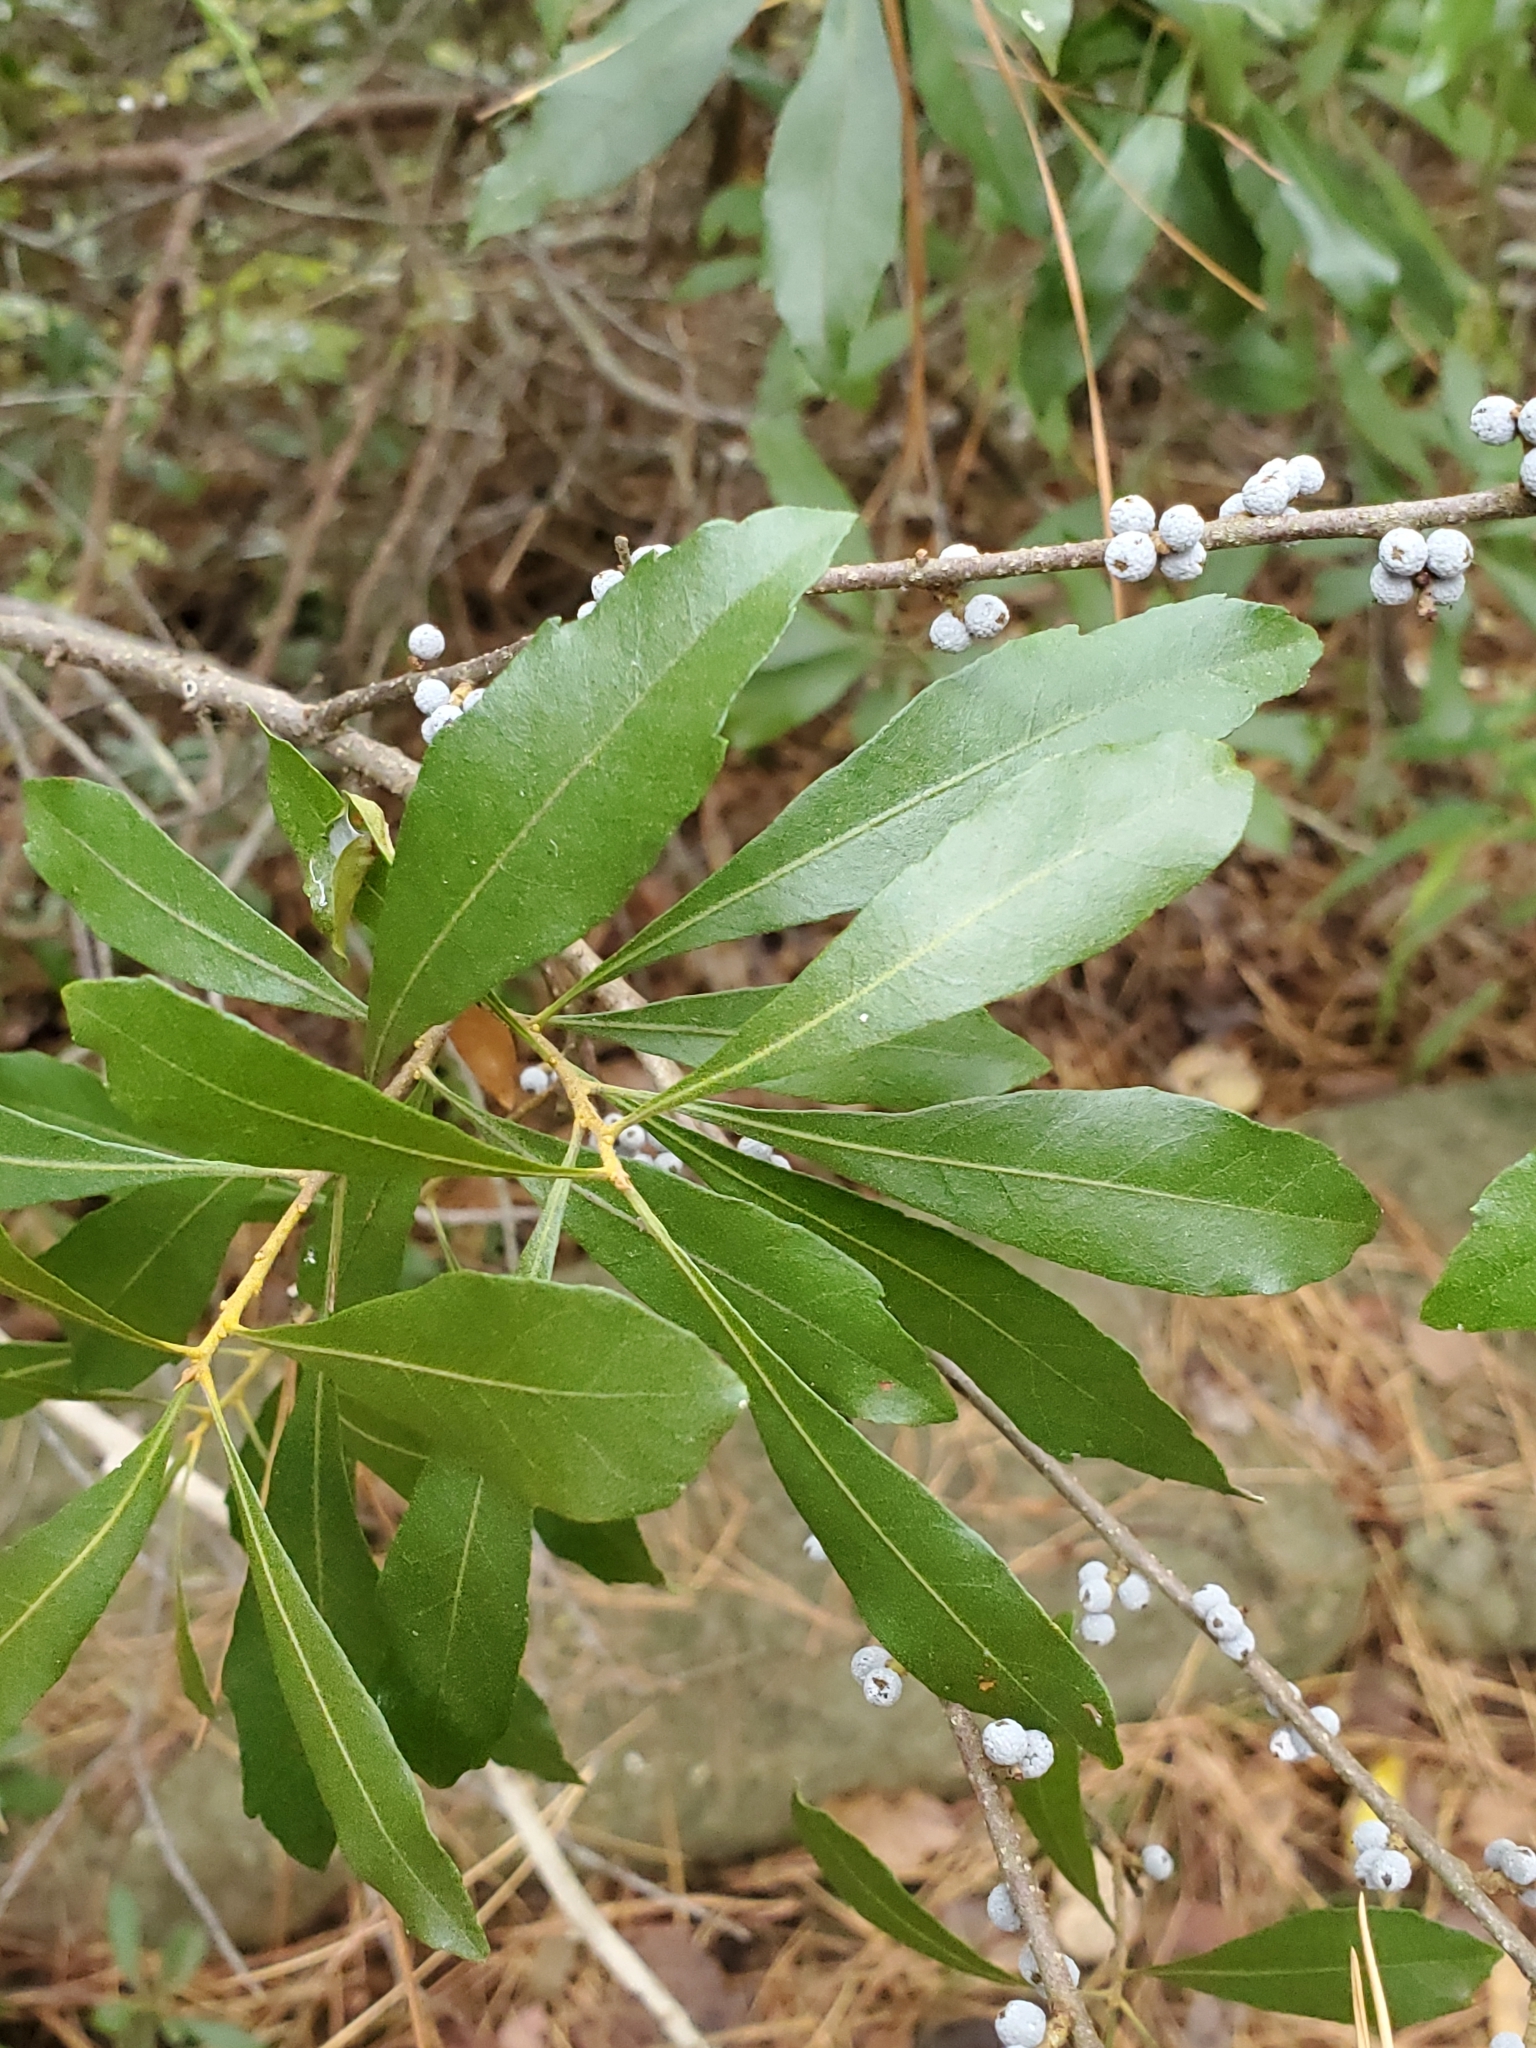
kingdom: Plantae
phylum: Tracheophyta
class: Magnoliopsida
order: Fagales
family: Myricaceae
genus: Morella
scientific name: Morella cerifera
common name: Wax myrtle
